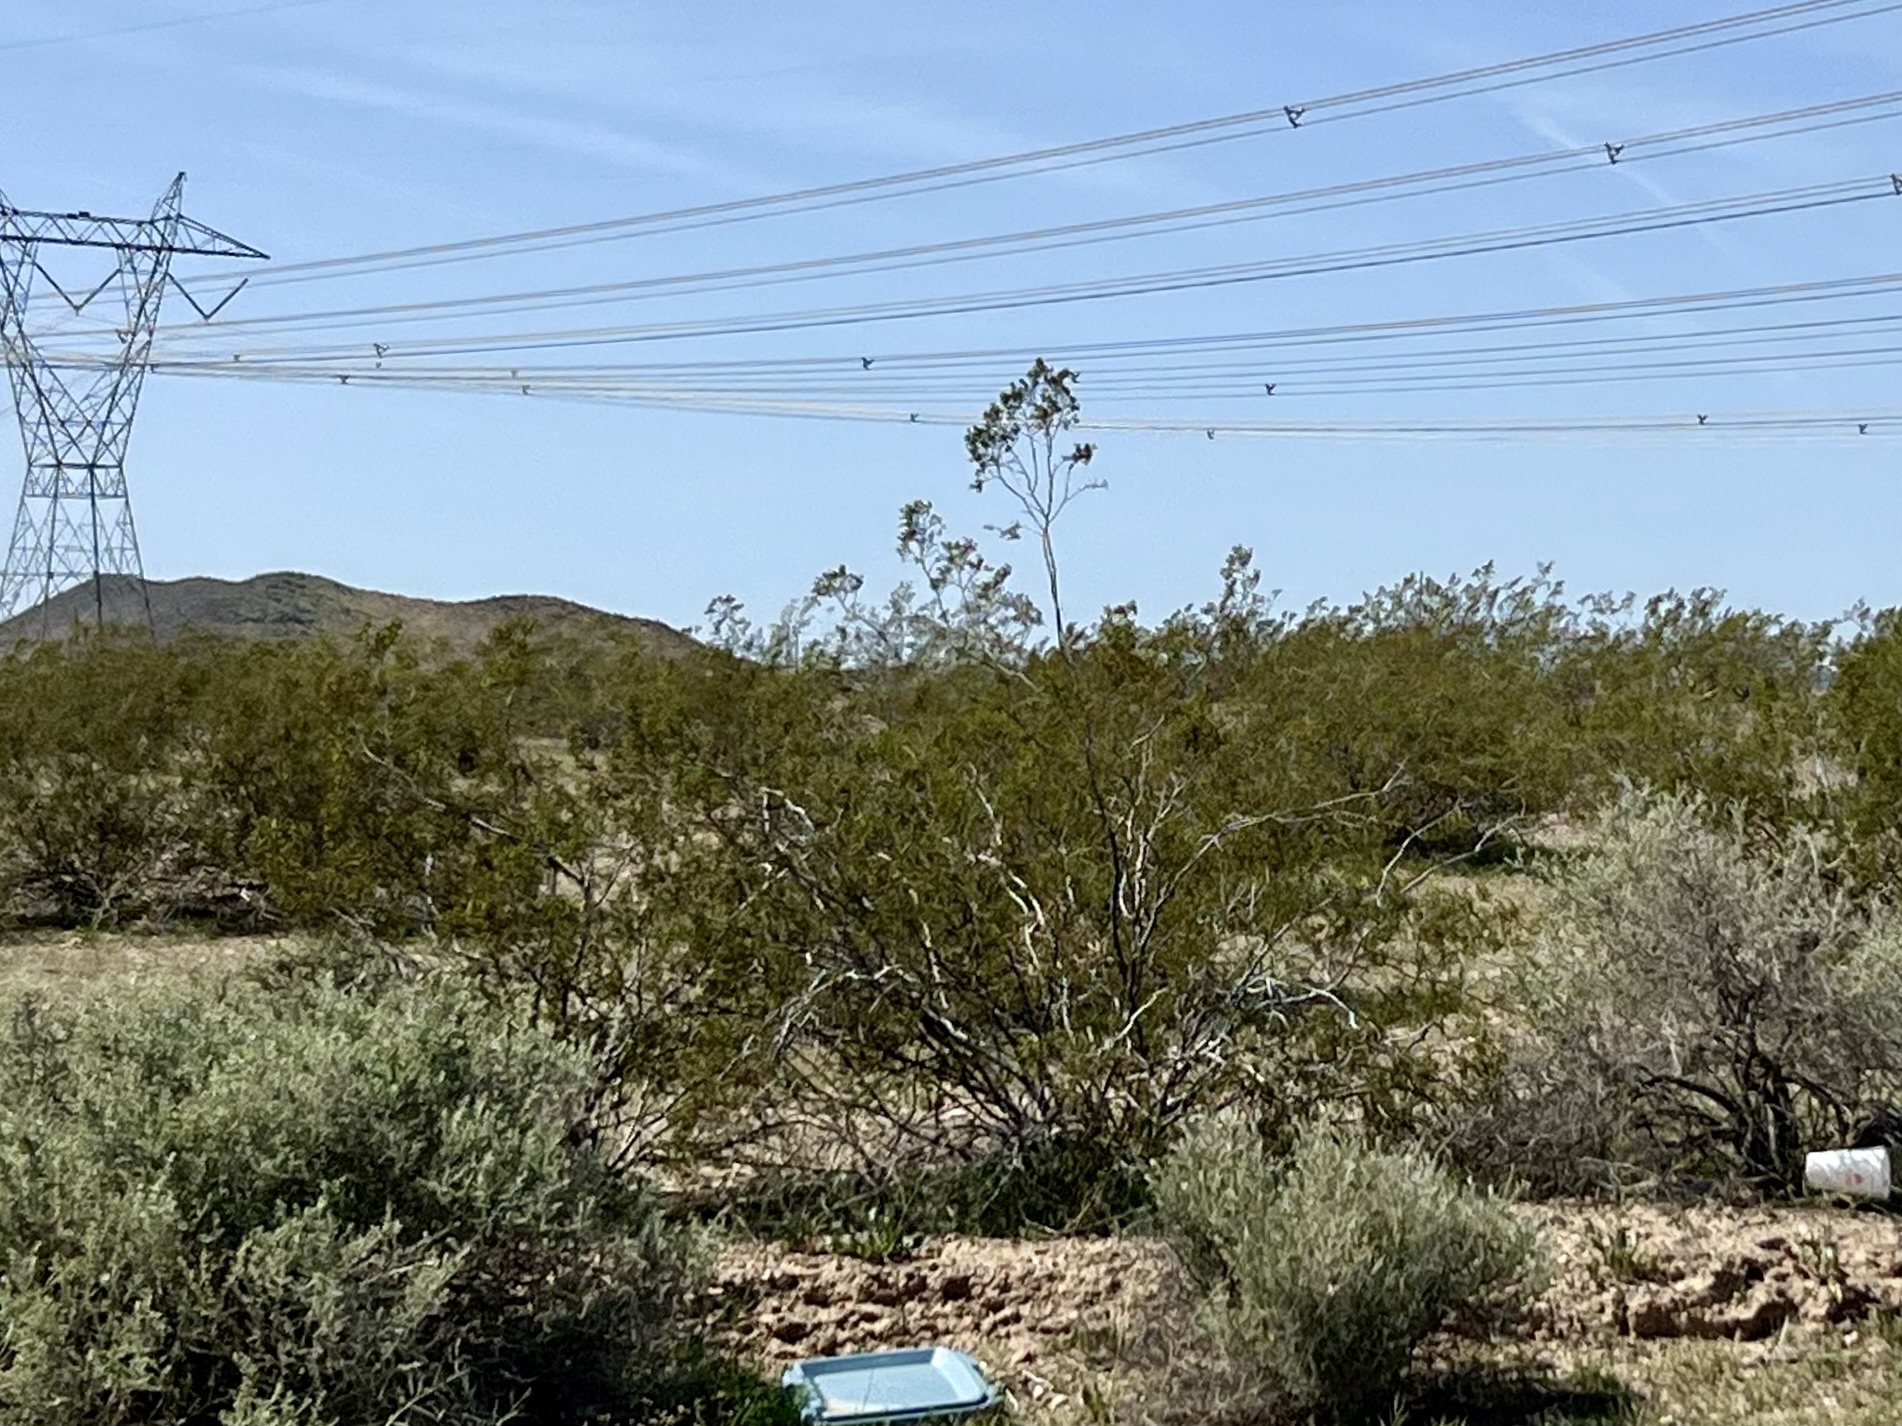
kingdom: Plantae
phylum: Tracheophyta
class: Magnoliopsida
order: Zygophyllales
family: Zygophyllaceae
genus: Larrea
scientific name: Larrea tridentata
